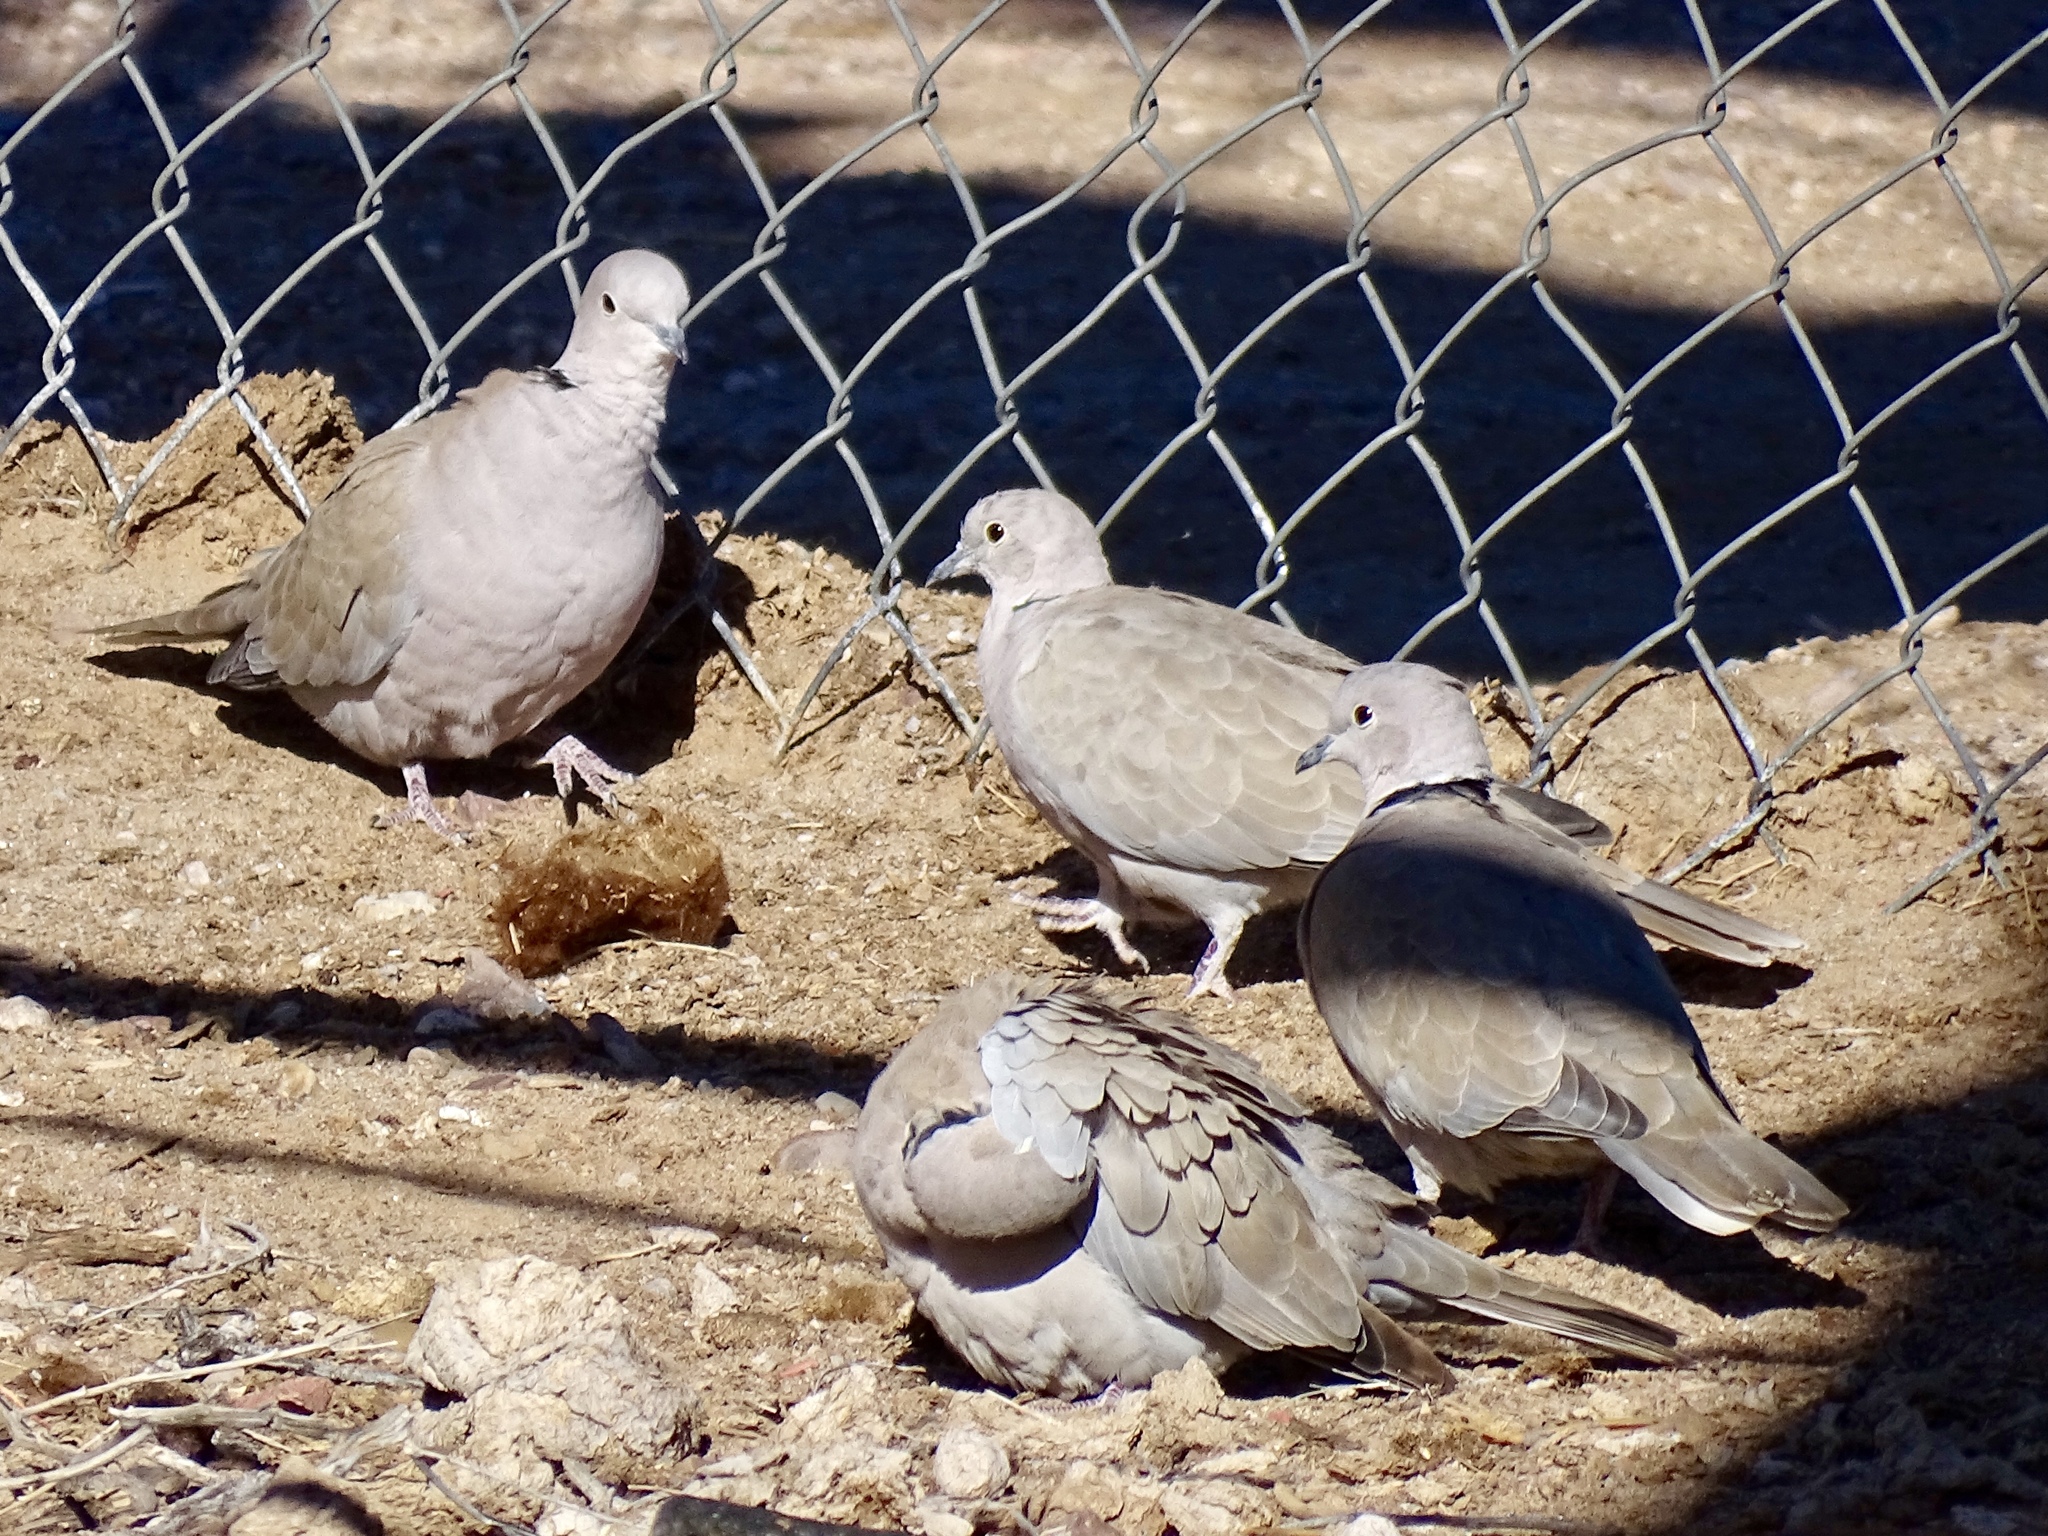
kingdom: Animalia
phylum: Chordata
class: Aves
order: Columbiformes
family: Columbidae
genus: Streptopelia
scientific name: Streptopelia decaocto
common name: Eurasian collared dove
